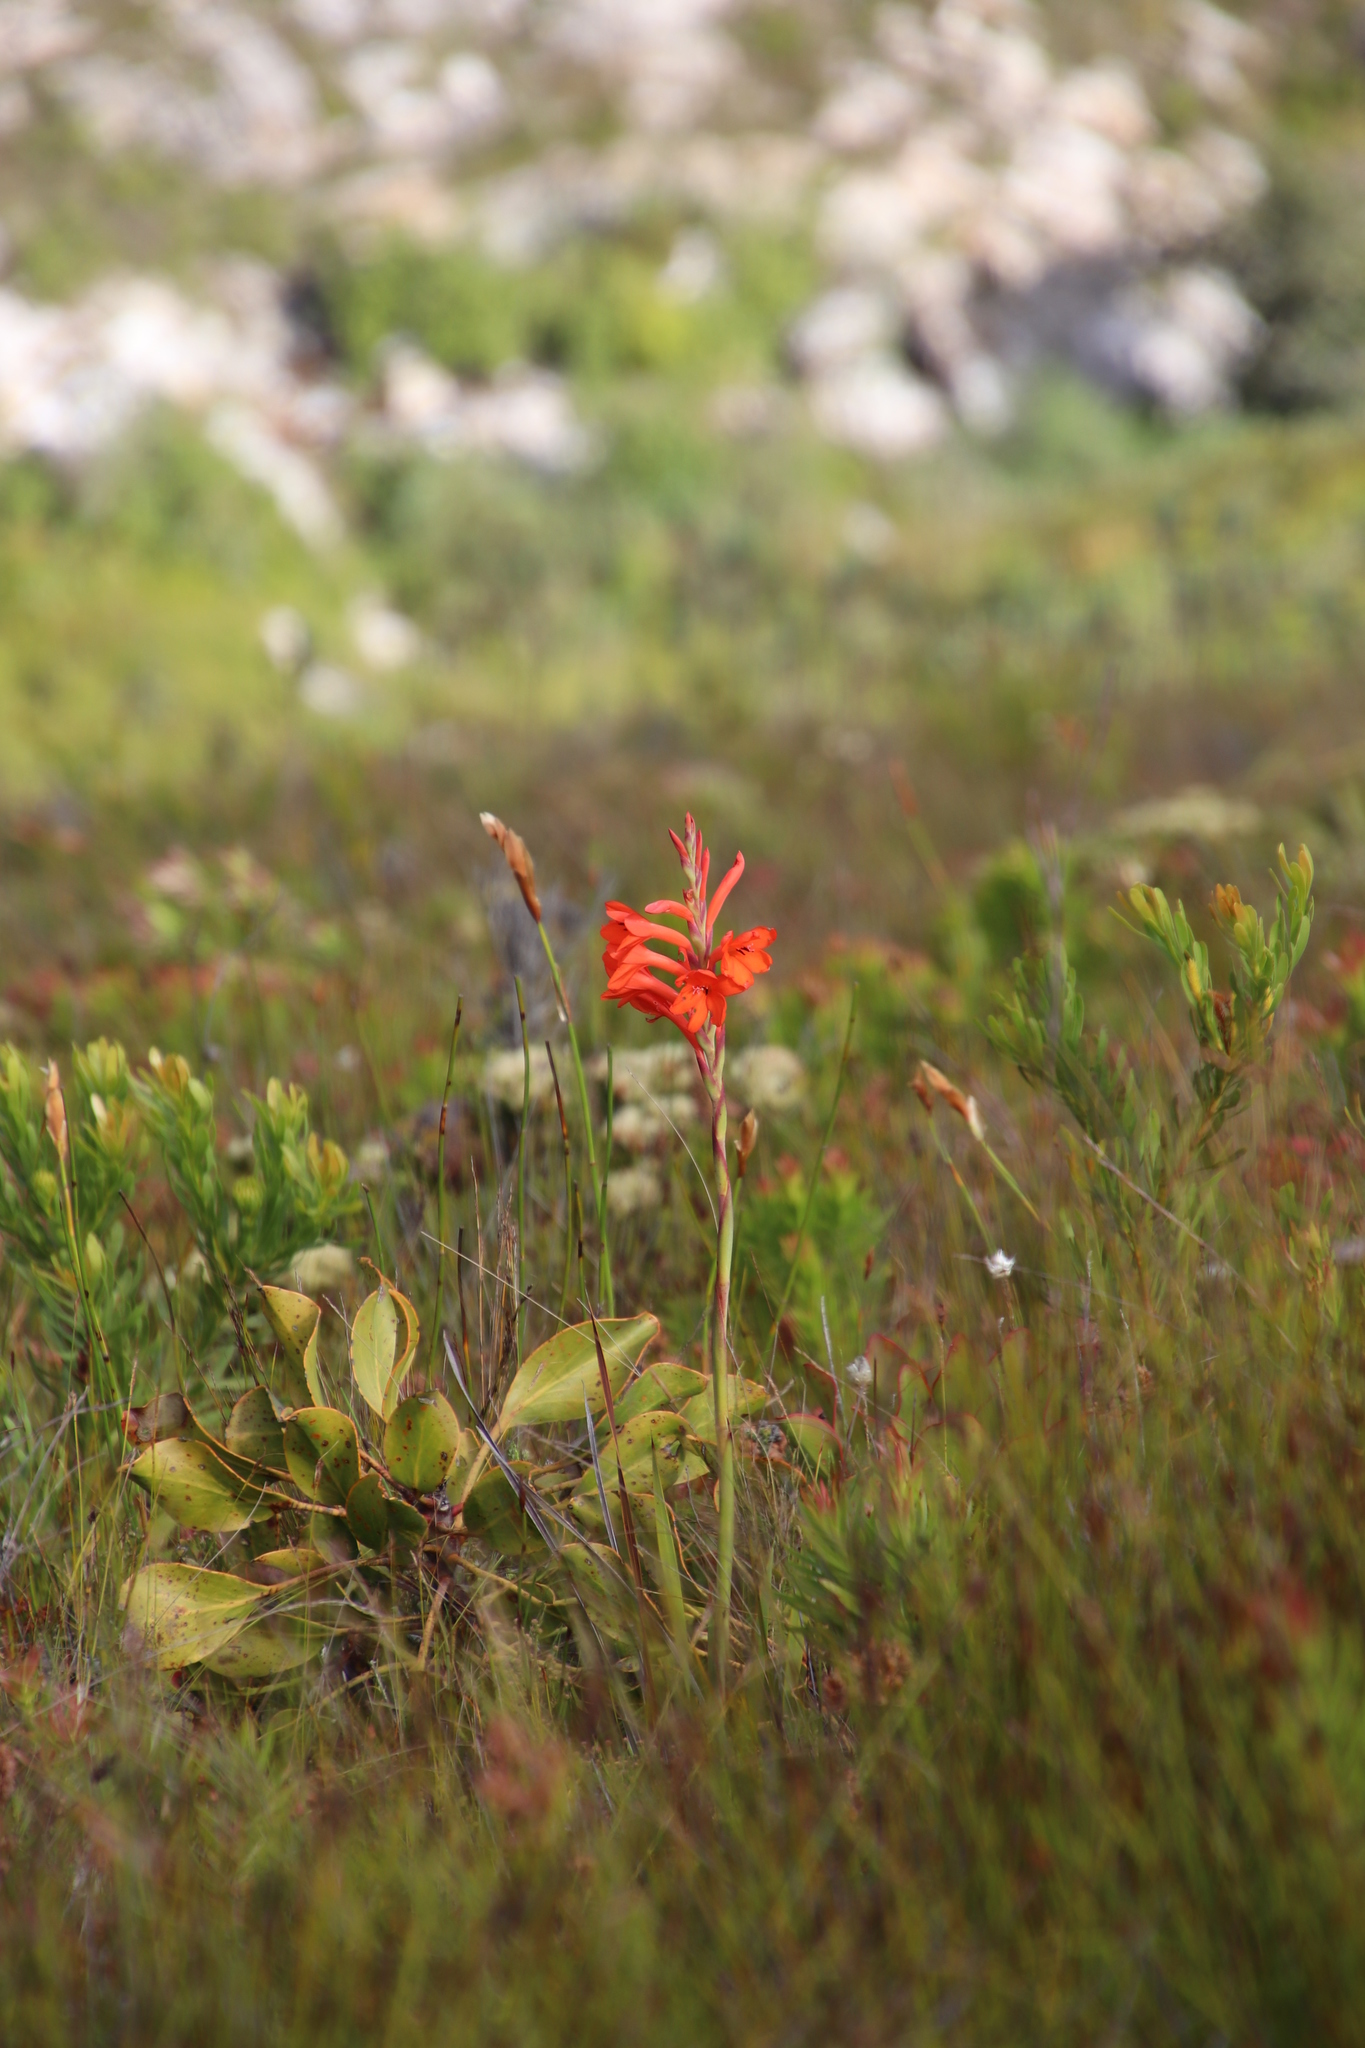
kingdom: Plantae
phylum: Tracheophyta
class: Liliopsida
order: Asparagales
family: Iridaceae
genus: Watsonia
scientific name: Watsonia schlechteri
